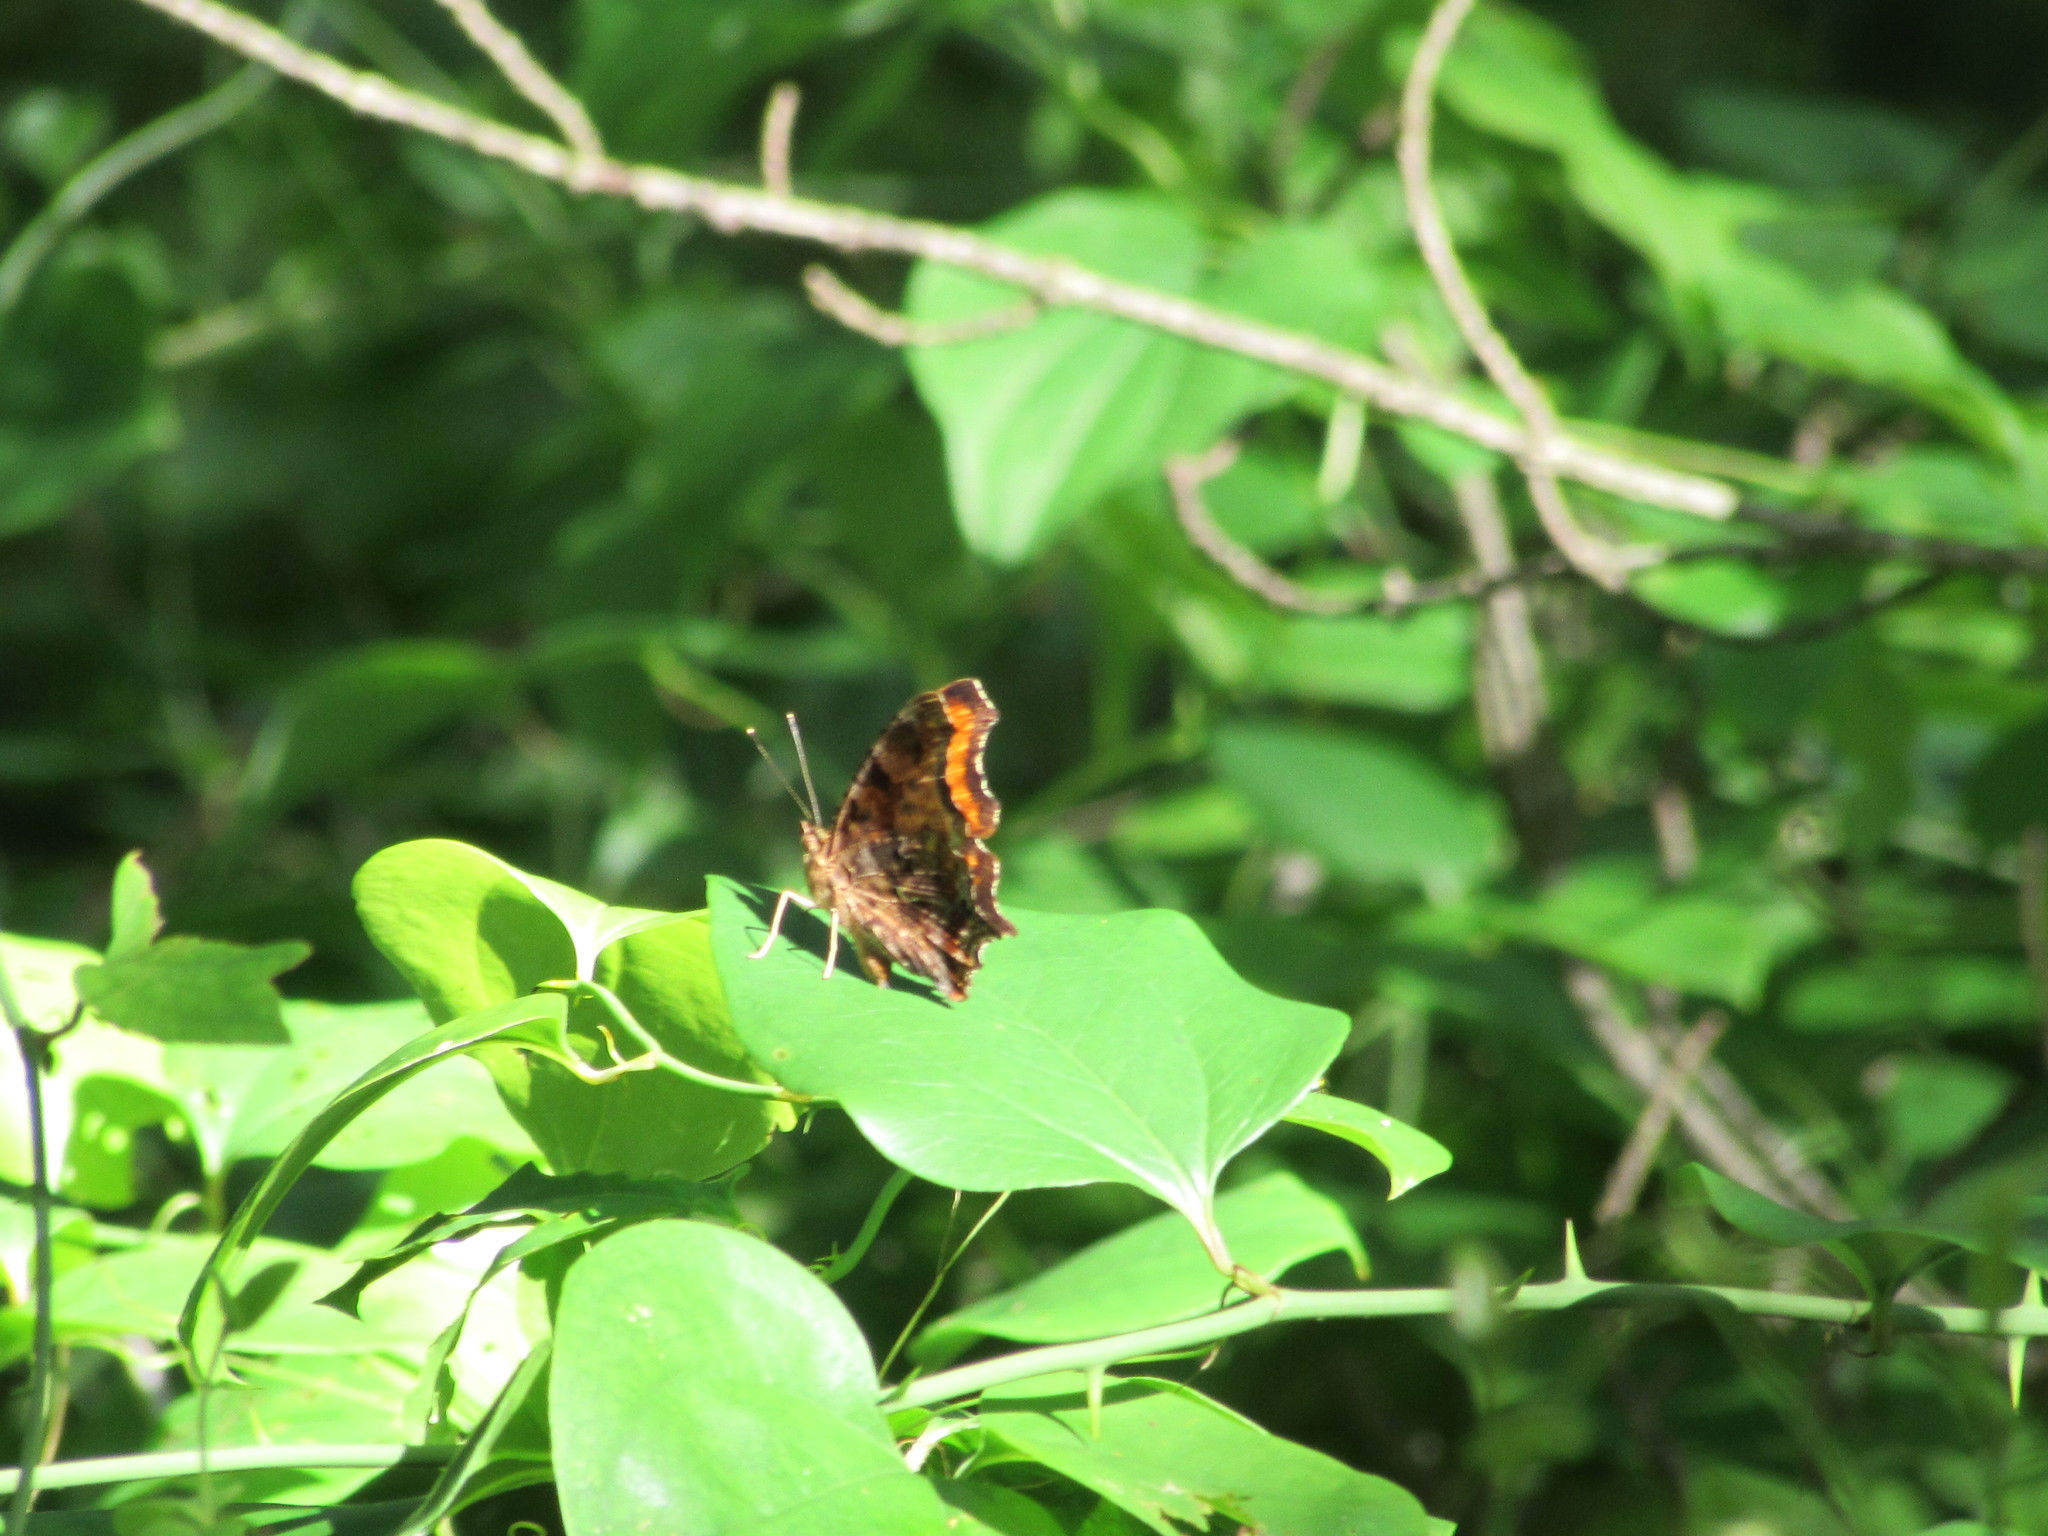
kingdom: Animalia
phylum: Arthropoda
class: Insecta
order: Lepidoptera
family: Nymphalidae
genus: Polygonia
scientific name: Polygonia comma
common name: Eastern comma
